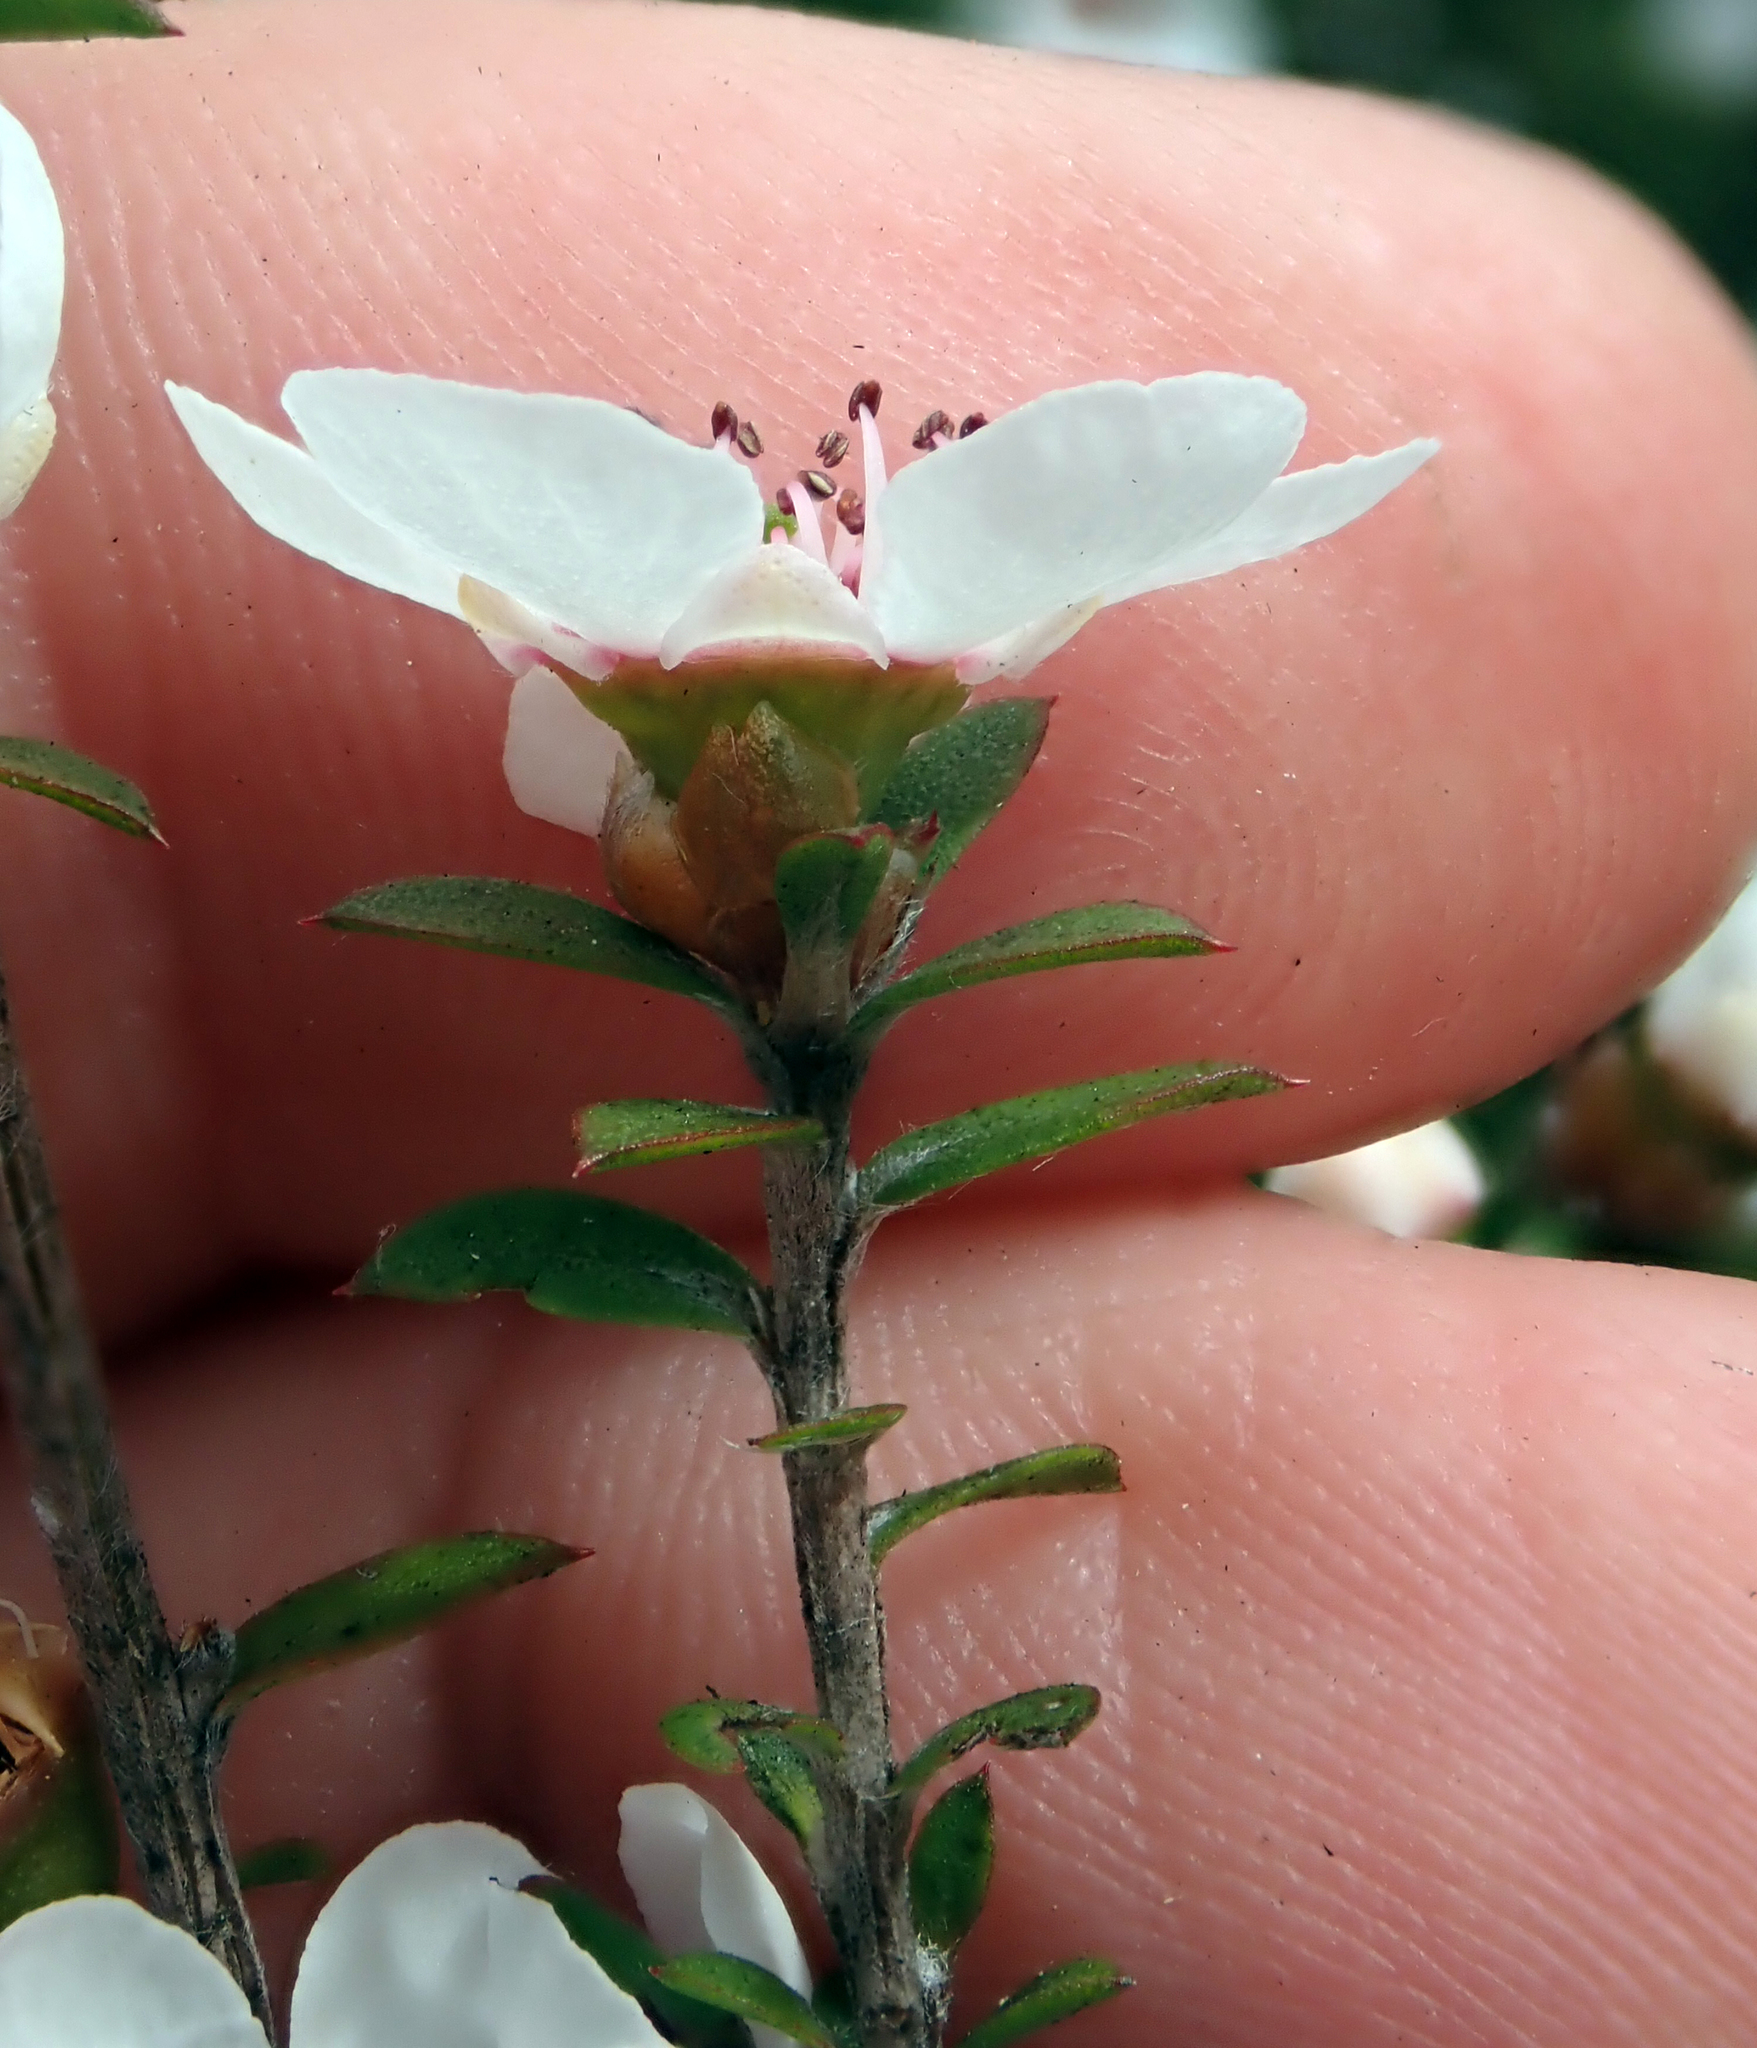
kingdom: Plantae
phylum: Tracheophyta
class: Magnoliopsida
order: Myrtales
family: Myrtaceae
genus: Leptospermum
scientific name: Leptospermum scoparium
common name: Broom tea-tree
